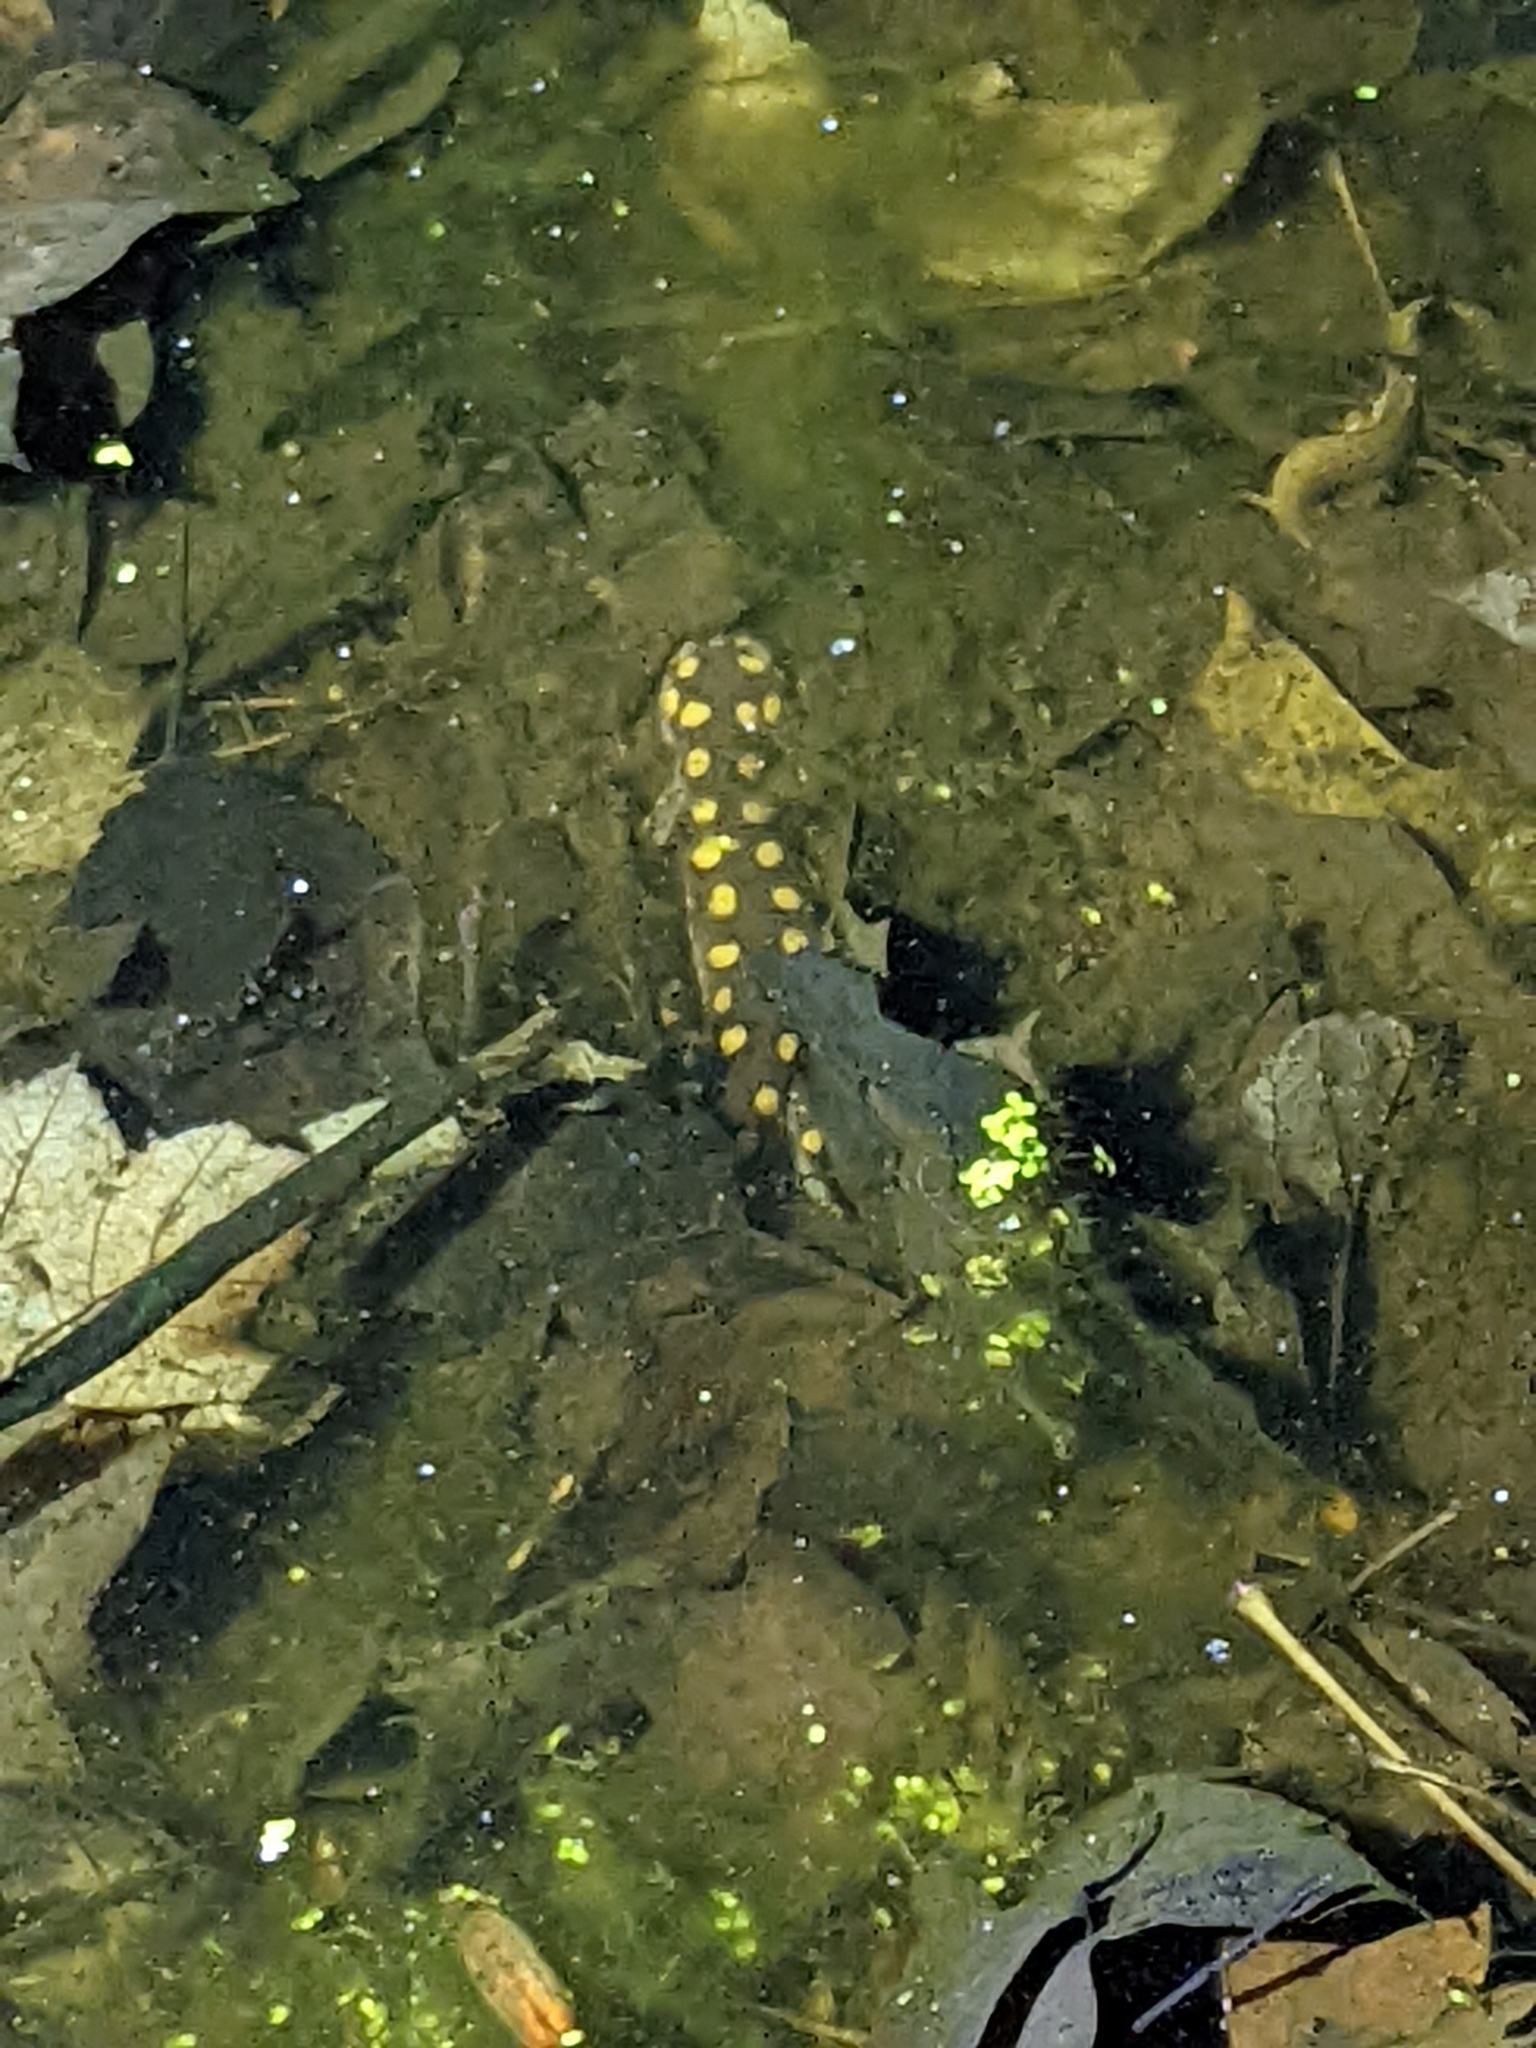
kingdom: Animalia
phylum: Chordata
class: Amphibia
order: Caudata
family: Ambystomatidae
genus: Ambystoma
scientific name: Ambystoma maculatum
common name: Spotted salamander
